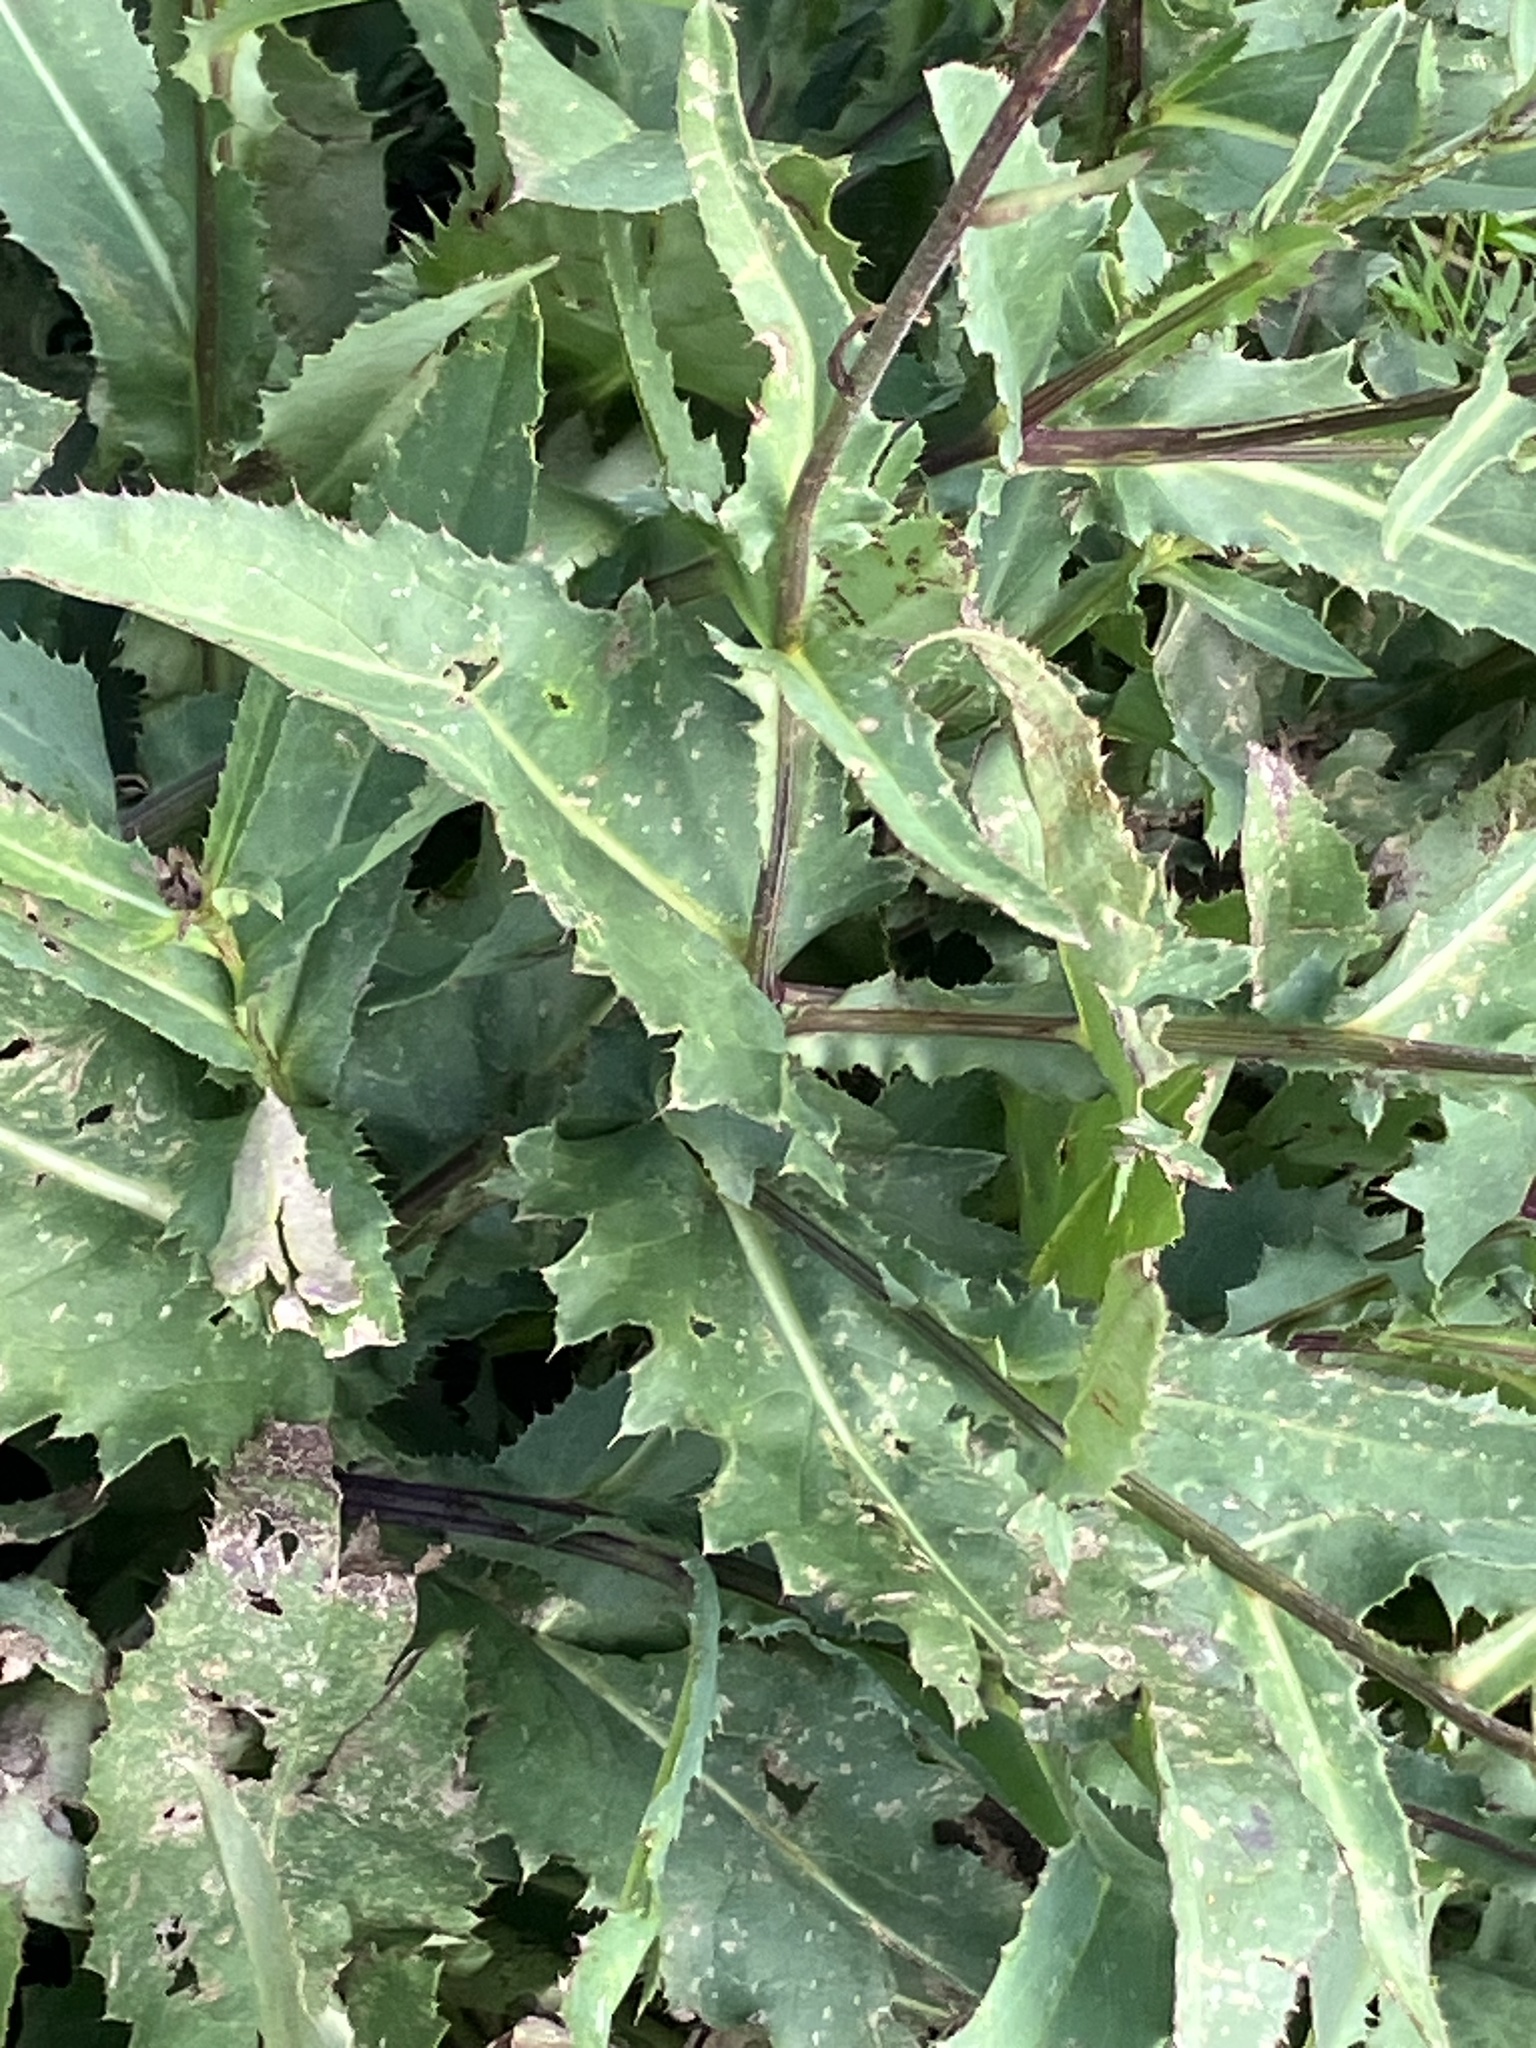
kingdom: Plantae
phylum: Tracheophyta
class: Magnoliopsida
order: Asterales
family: Asteraceae
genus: Carduus
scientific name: Carduus defloratus
